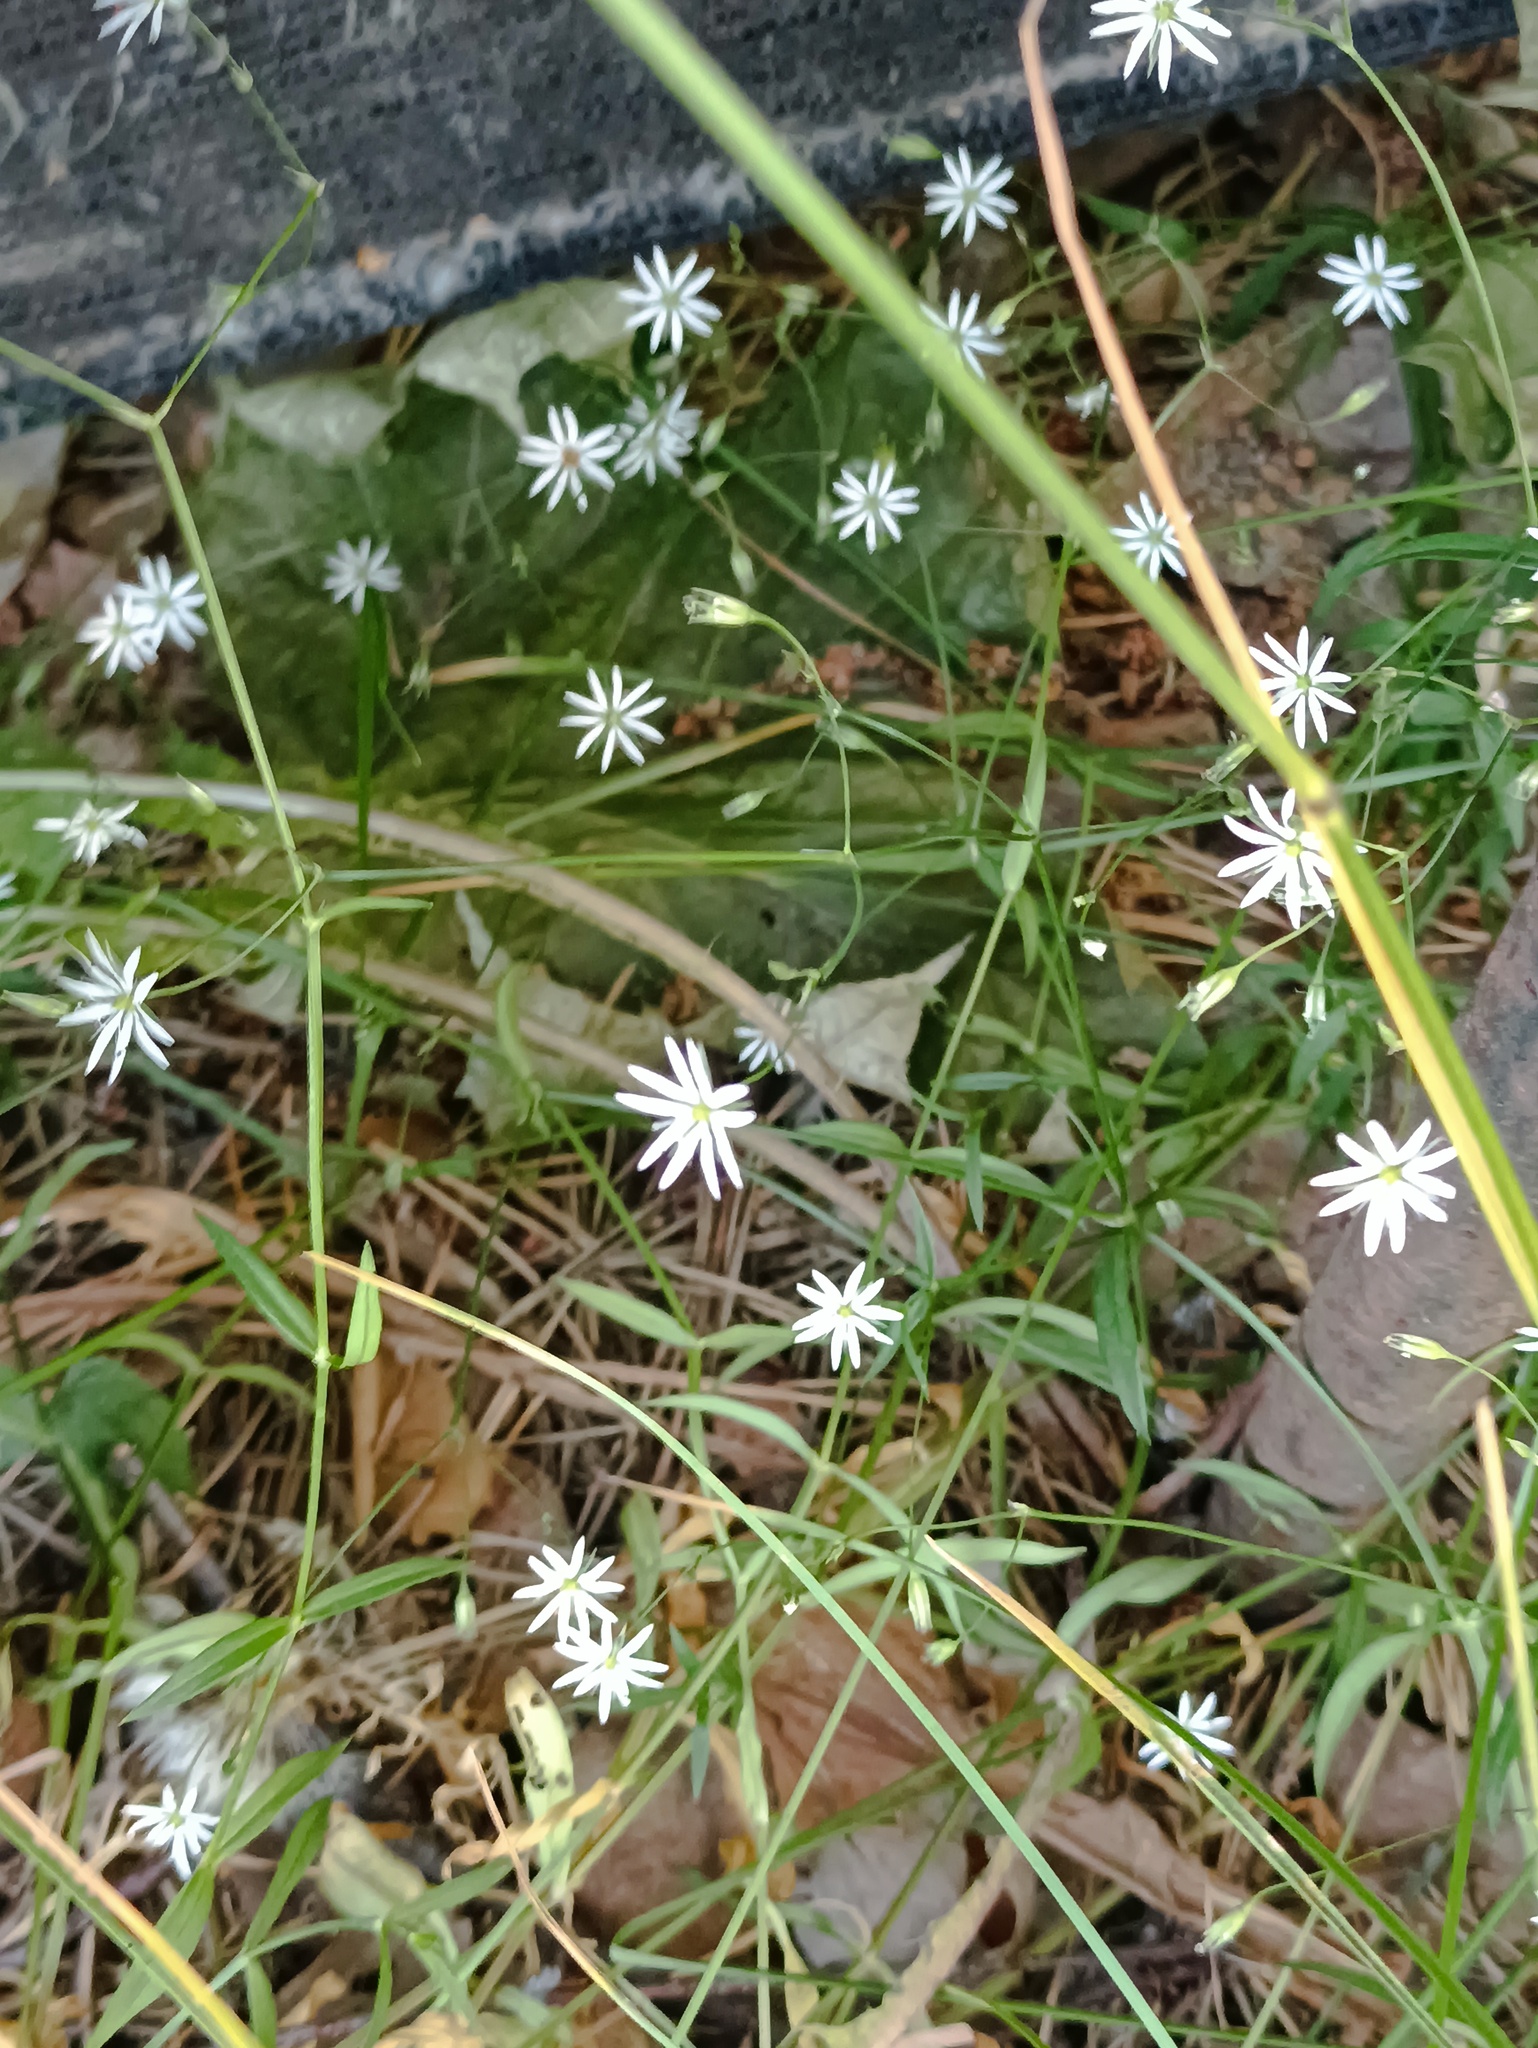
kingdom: Plantae
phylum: Tracheophyta
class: Magnoliopsida
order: Caryophyllales
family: Caryophyllaceae
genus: Stellaria
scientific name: Stellaria graminea
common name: Grass-like starwort
